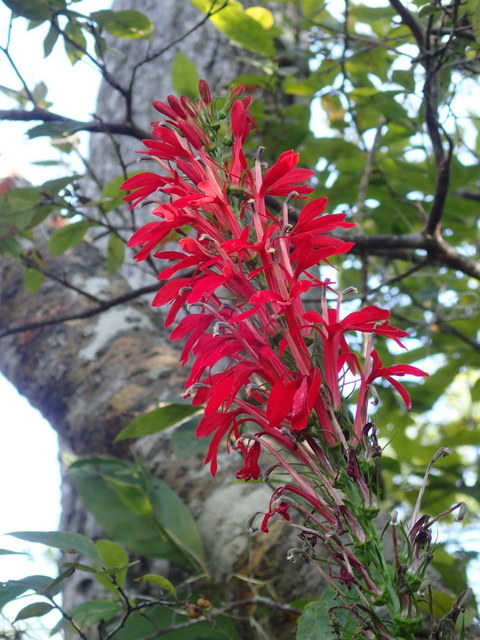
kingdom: Plantae
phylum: Tracheophyta
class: Magnoliopsida
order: Asterales
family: Campanulaceae
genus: Lobelia
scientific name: Lobelia cardinalis
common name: Cardinal flower
